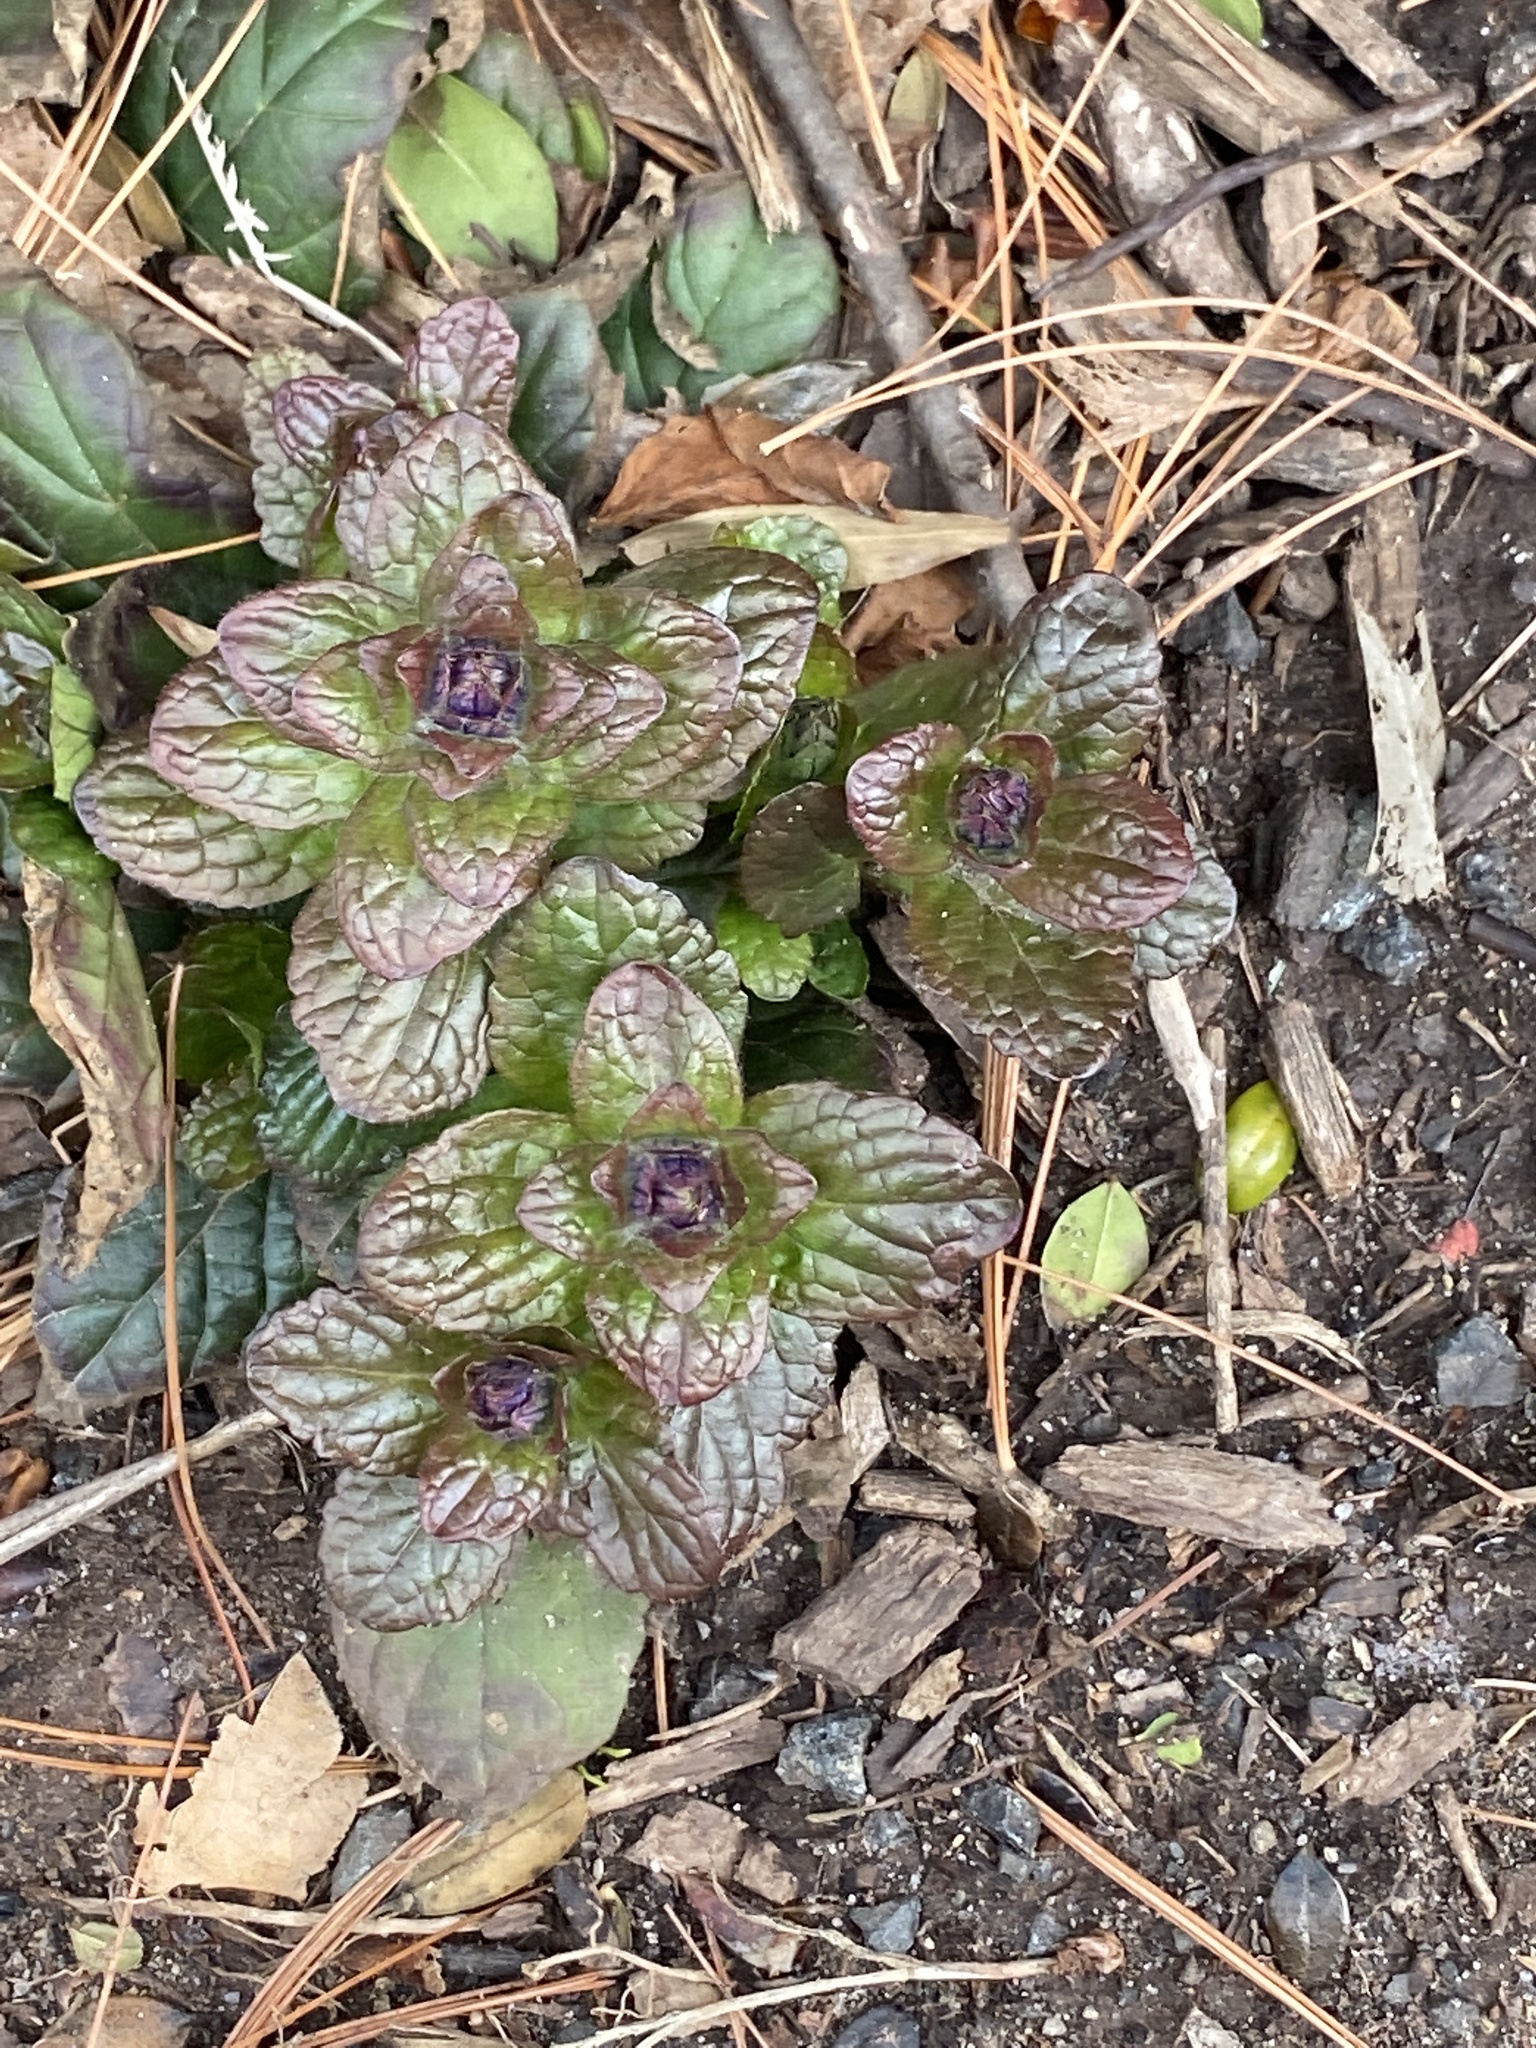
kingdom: Plantae
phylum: Tracheophyta
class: Magnoliopsida
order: Lamiales
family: Lamiaceae
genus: Ajuga
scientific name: Ajuga reptans
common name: Bugle
